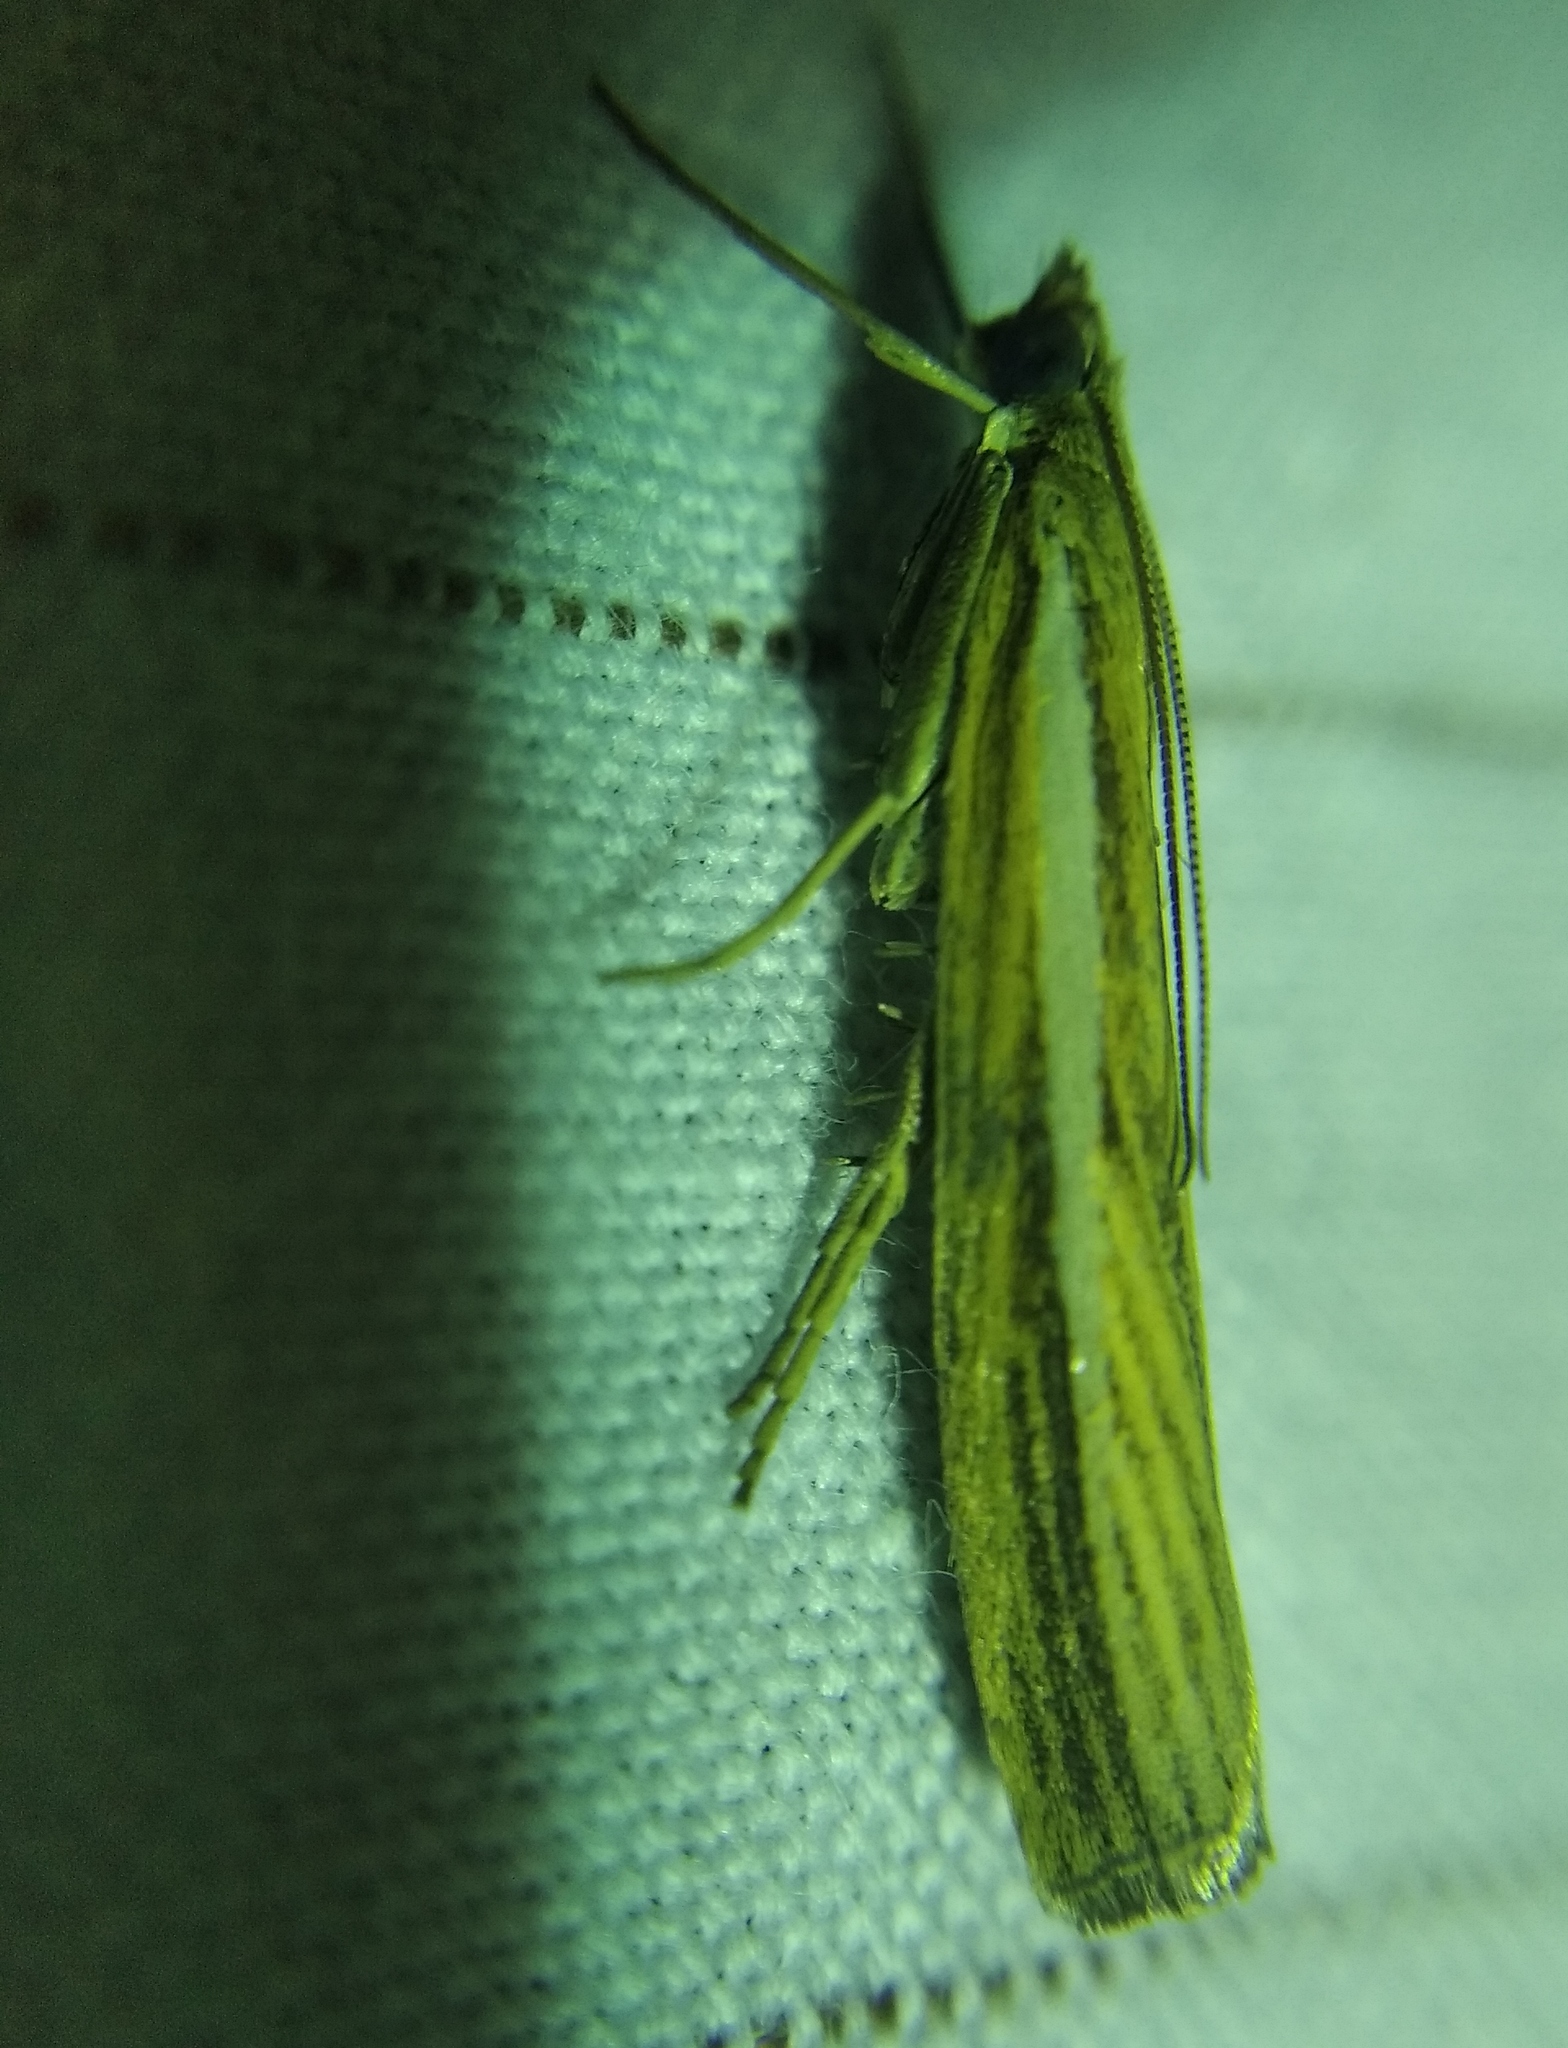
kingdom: Animalia
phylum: Arthropoda
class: Insecta
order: Lepidoptera
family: Crambidae
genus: Agriphila
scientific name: Agriphila tristellus
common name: Common grass-veneer
